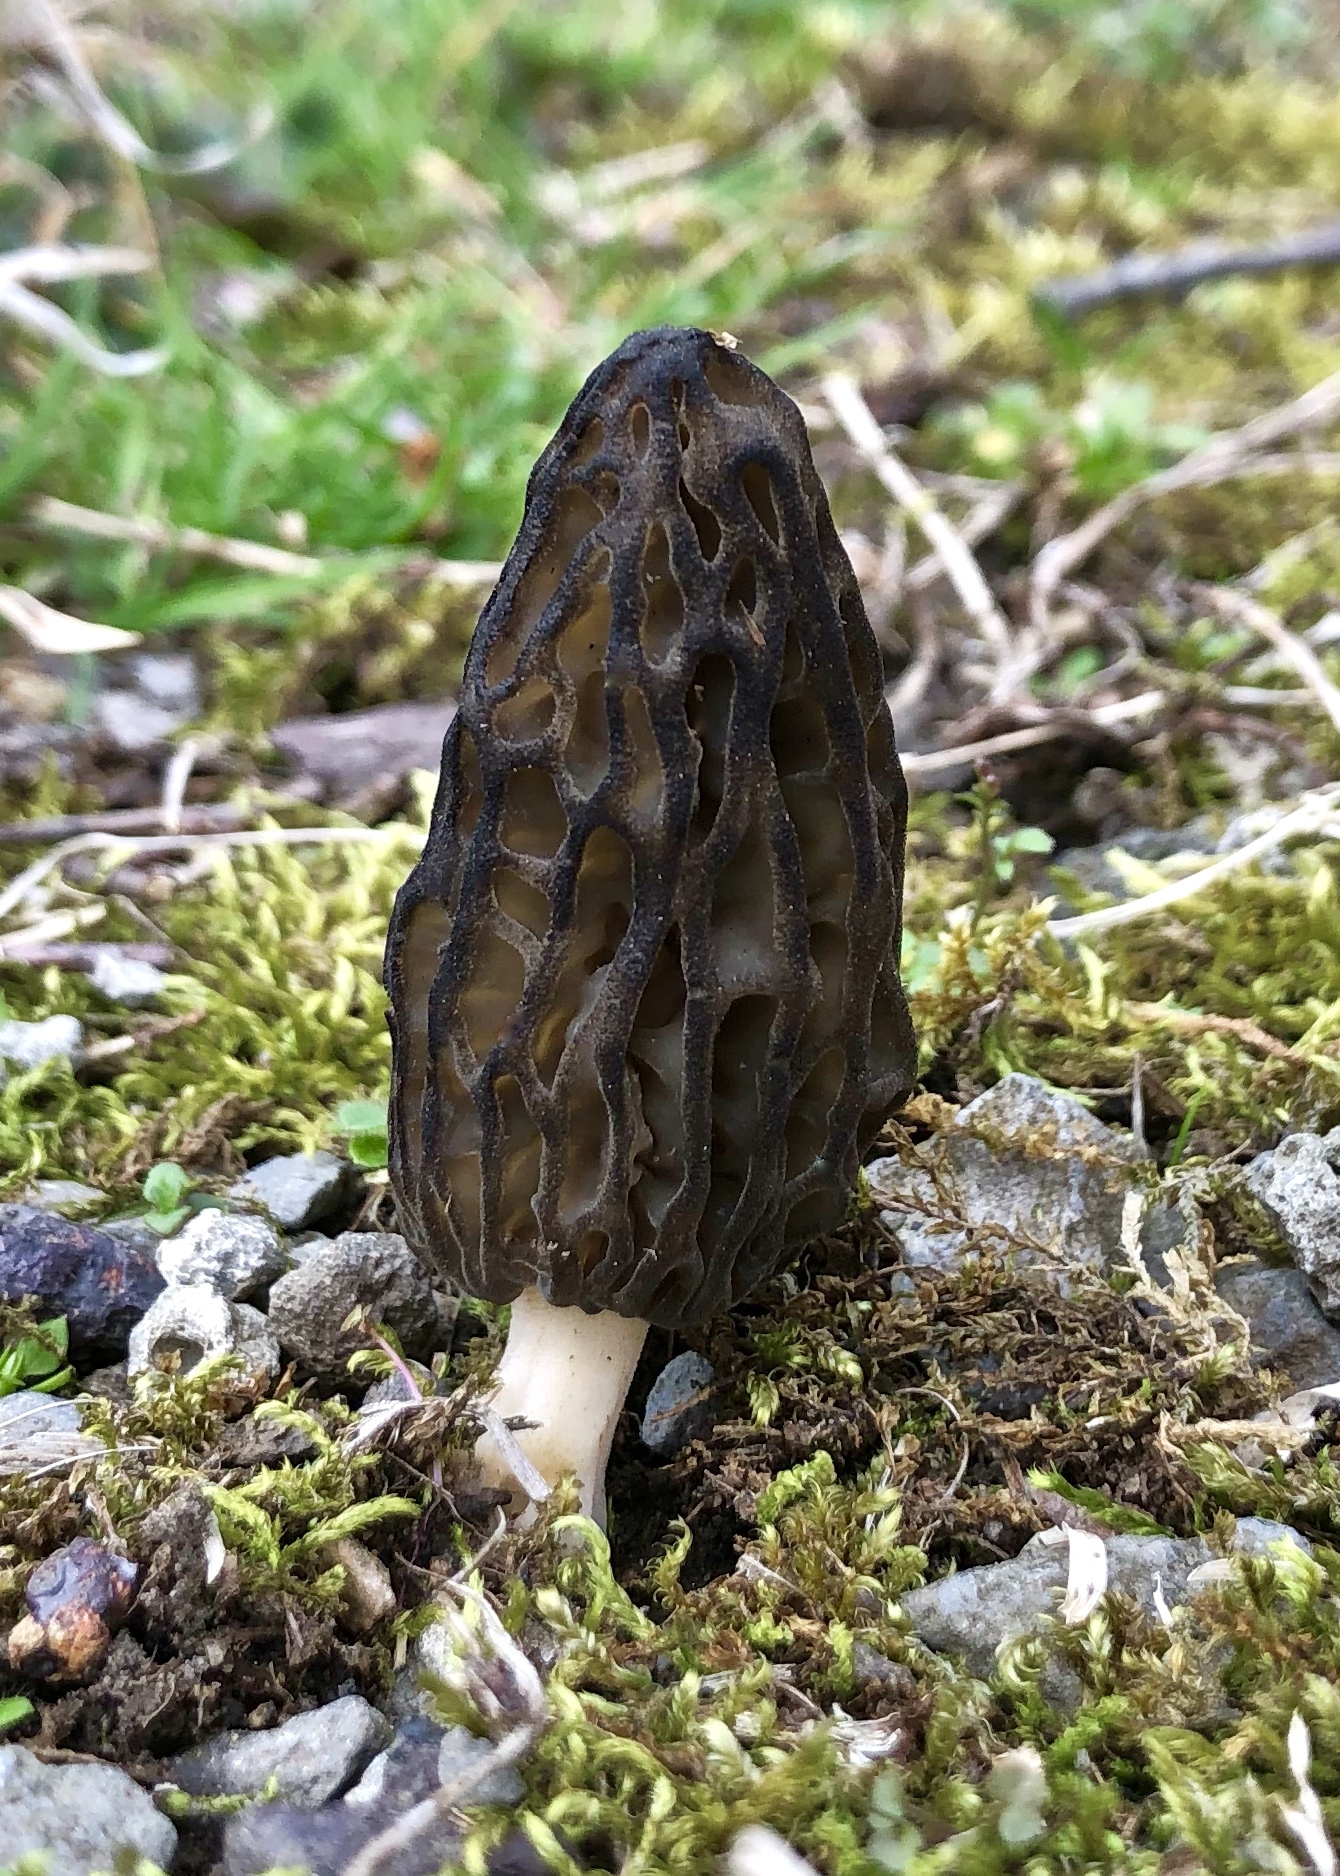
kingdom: Fungi
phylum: Ascomycota
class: Pezizomycetes
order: Pezizales
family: Morchellaceae
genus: Morchella
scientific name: Morchella angusticeps
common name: Black morel
